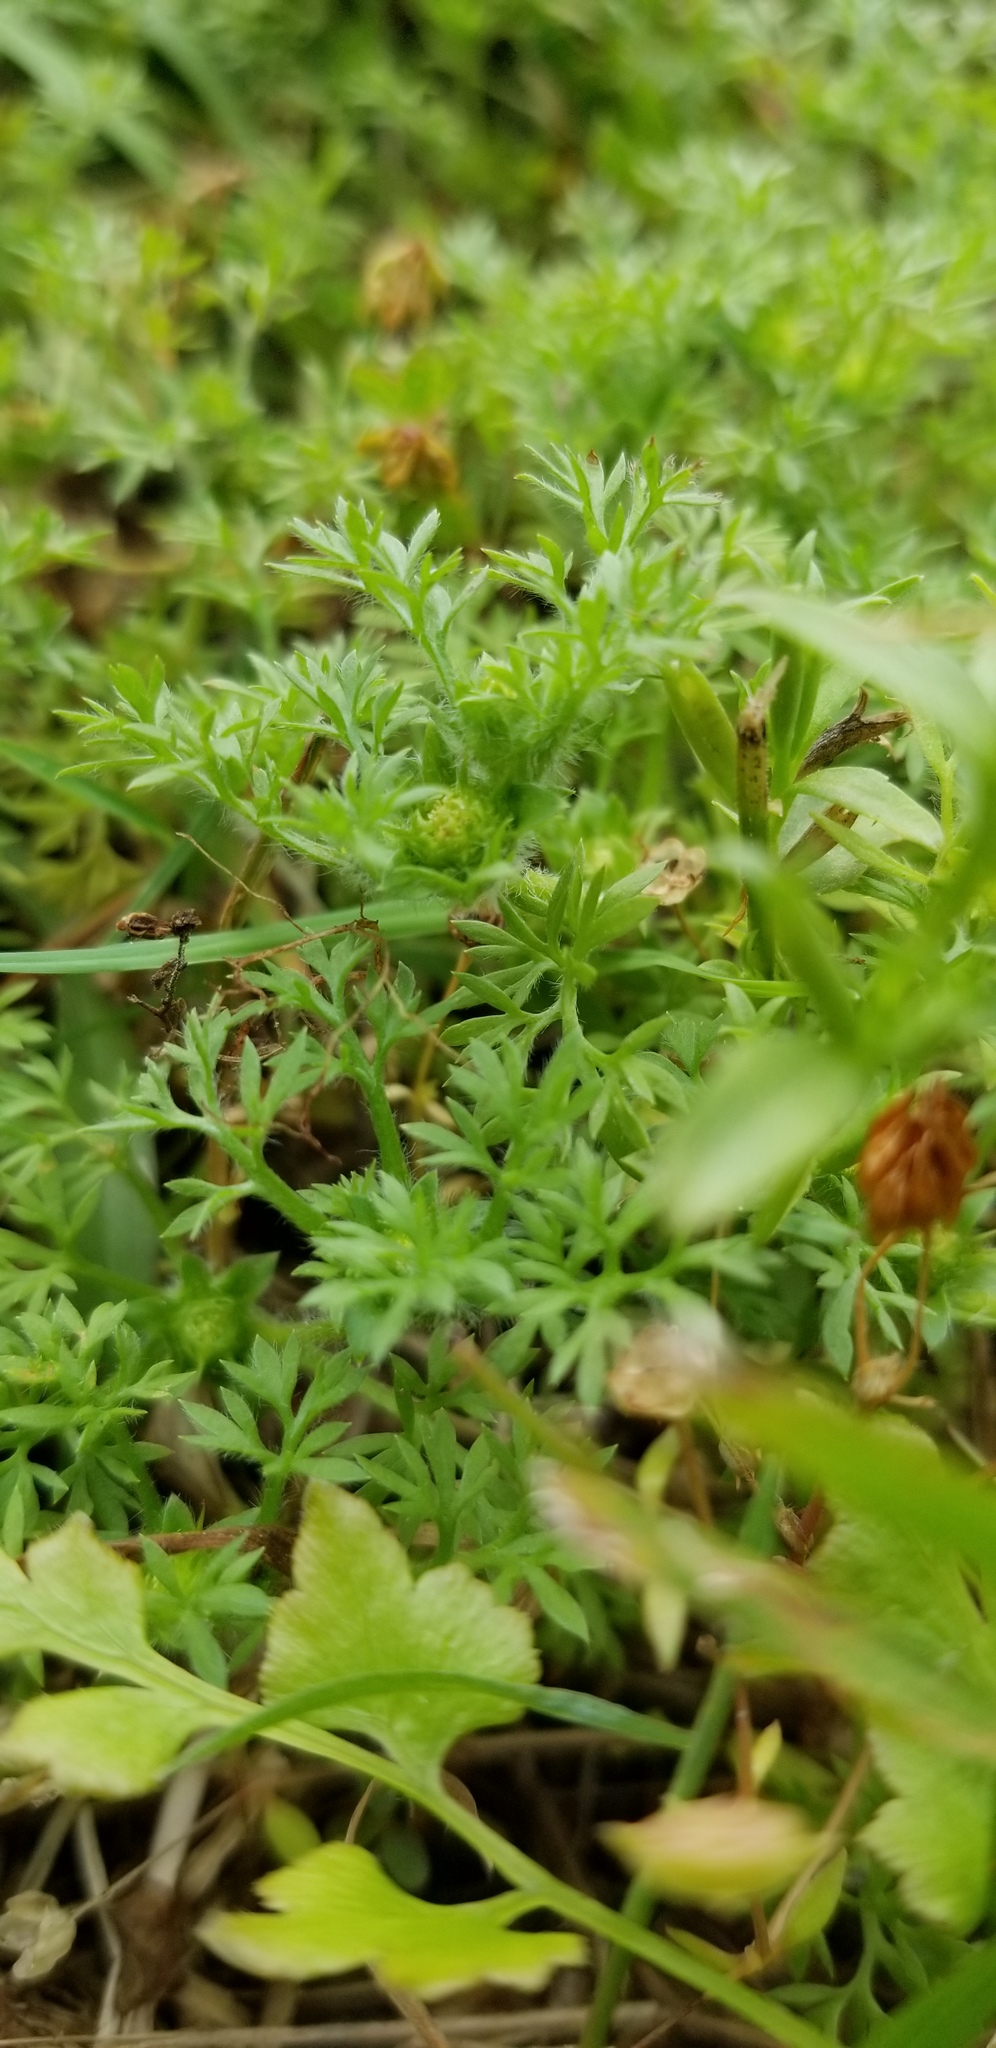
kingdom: Plantae
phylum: Tracheophyta
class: Magnoliopsida
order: Asterales
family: Asteraceae
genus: Soliva
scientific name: Soliva sessilis
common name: Field burrweed
